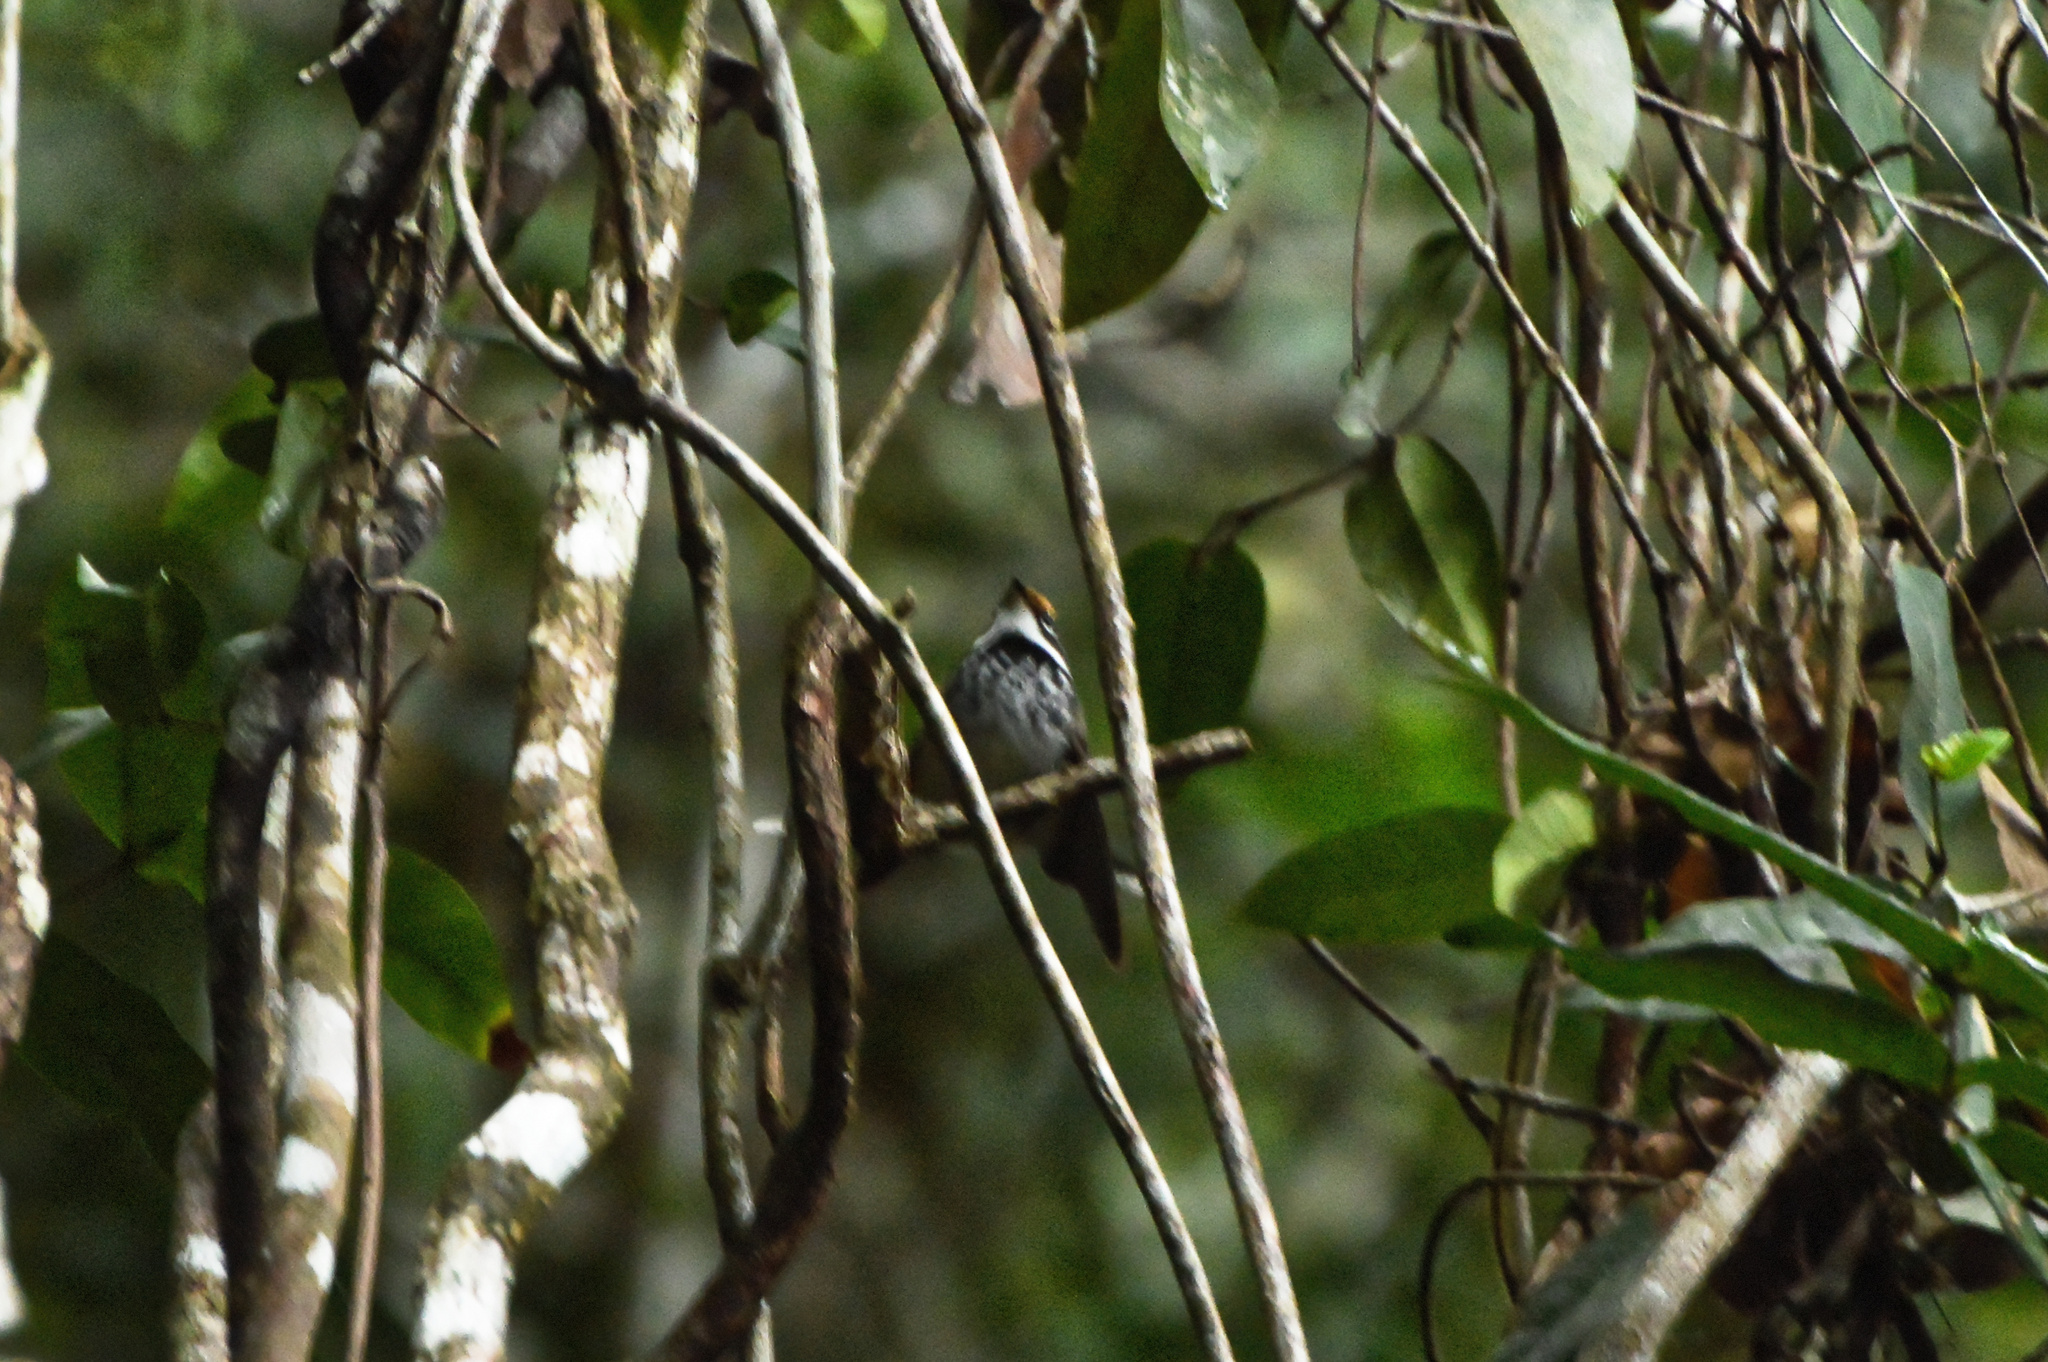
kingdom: Animalia
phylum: Chordata
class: Aves
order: Passeriformes
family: Rhipiduridae
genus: Rhipidura
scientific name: Rhipidura rufifrons
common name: Rufous fantail
